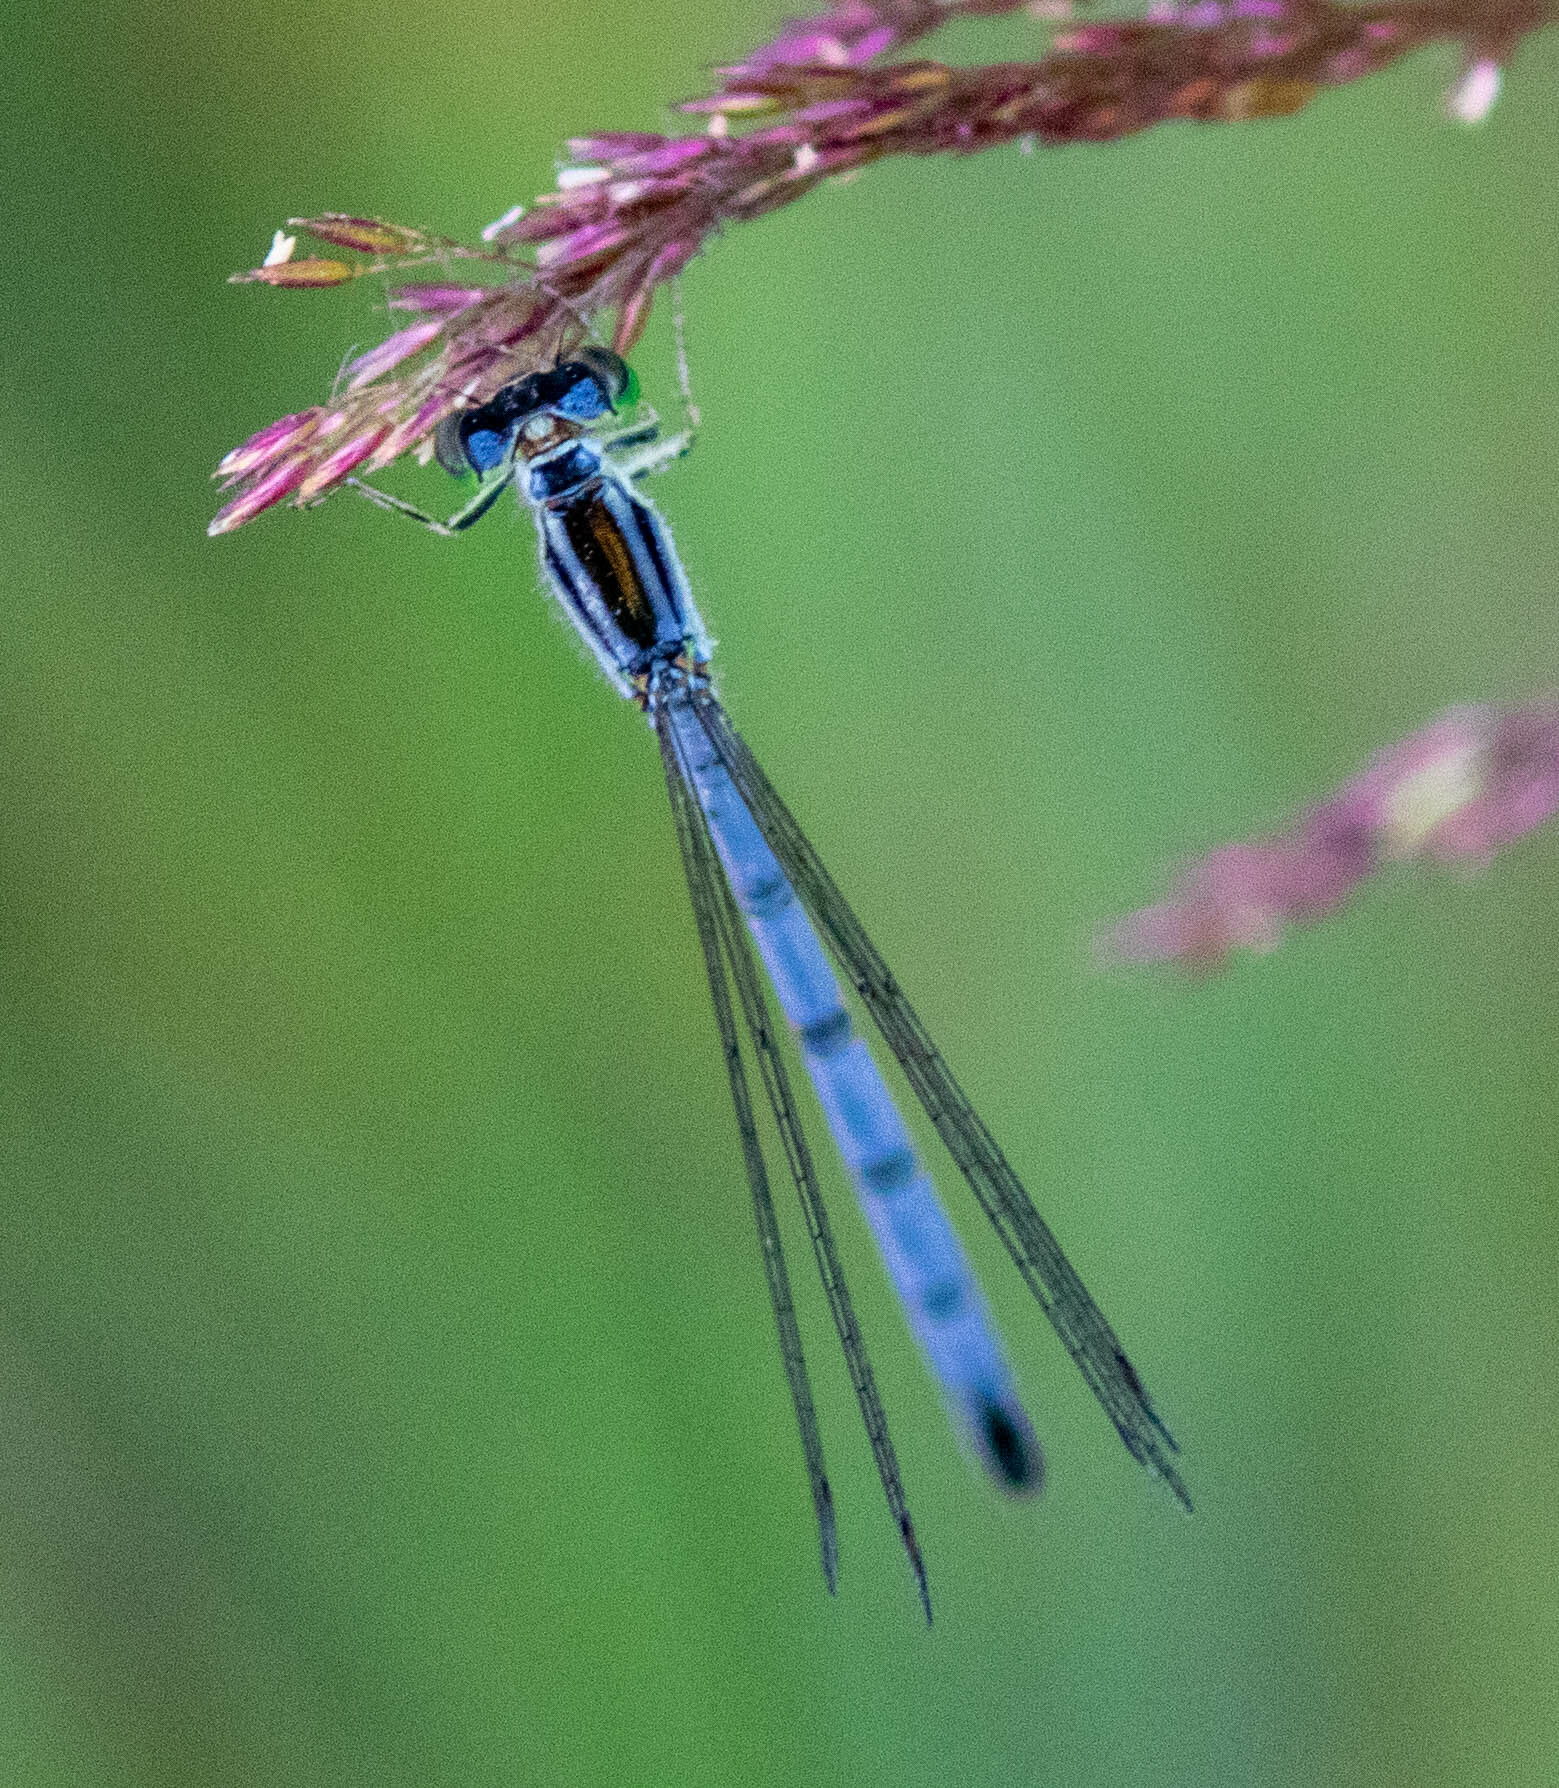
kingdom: Animalia
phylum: Arthropoda
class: Insecta
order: Odonata
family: Coenagrionidae
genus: Ischnura
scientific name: Ischnura verticalis
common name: Eastern forktail
